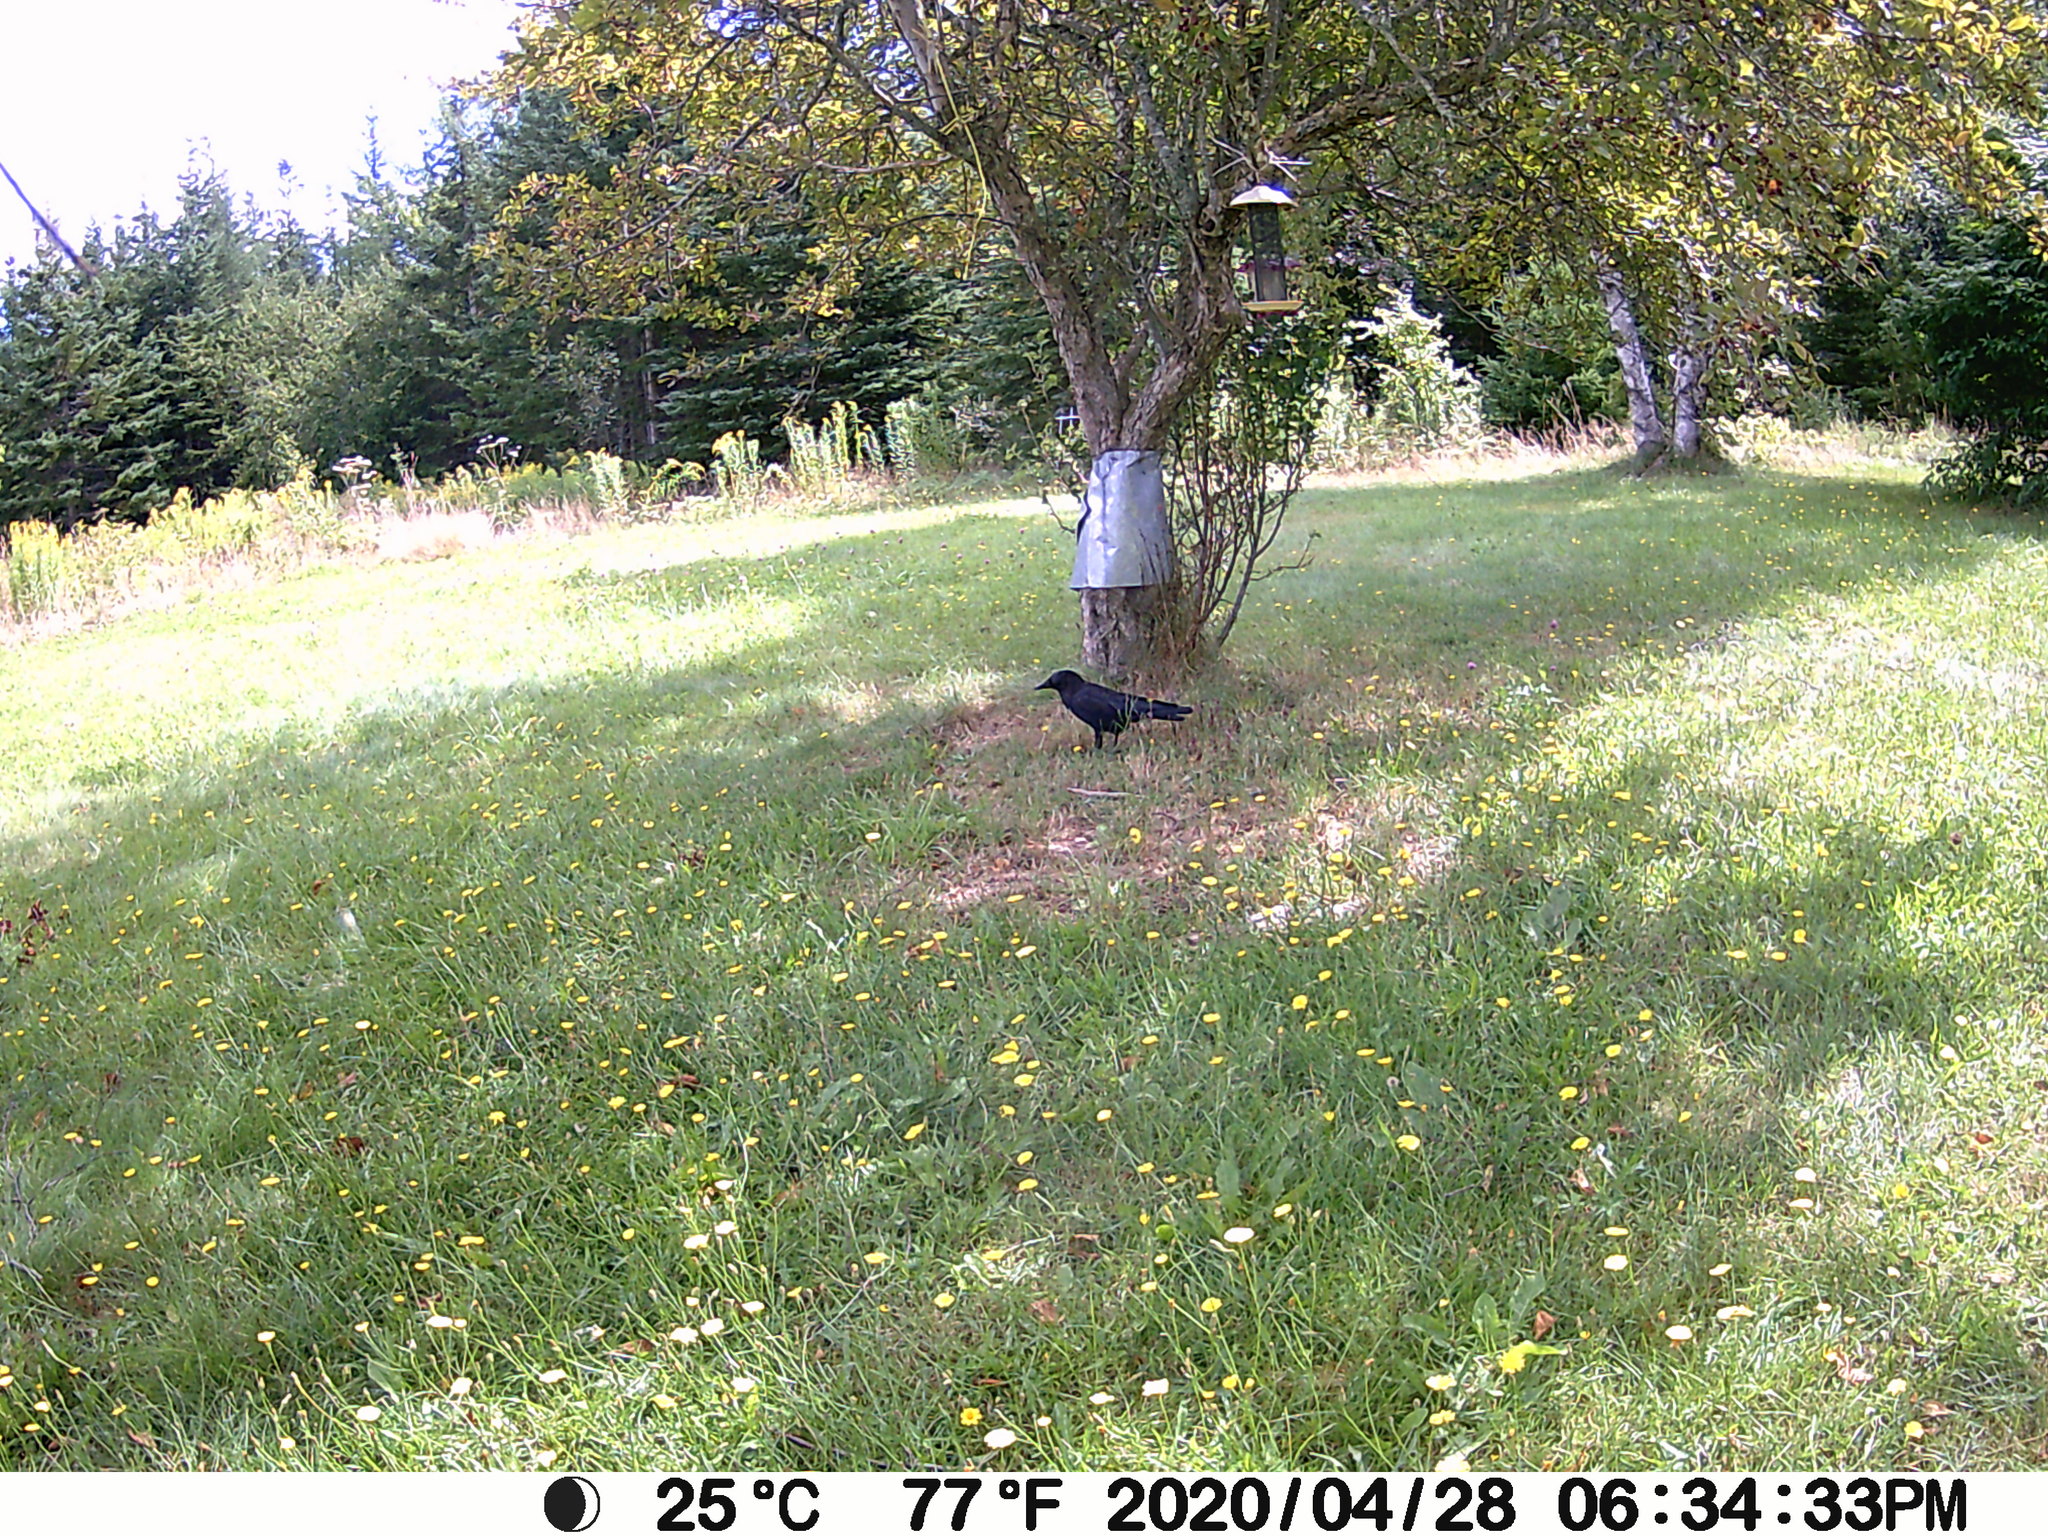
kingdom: Animalia
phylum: Chordata
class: Aves
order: Passeriformes
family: Corvidae
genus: Corvus
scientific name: Corvus brachyrhynchos
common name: American crow
